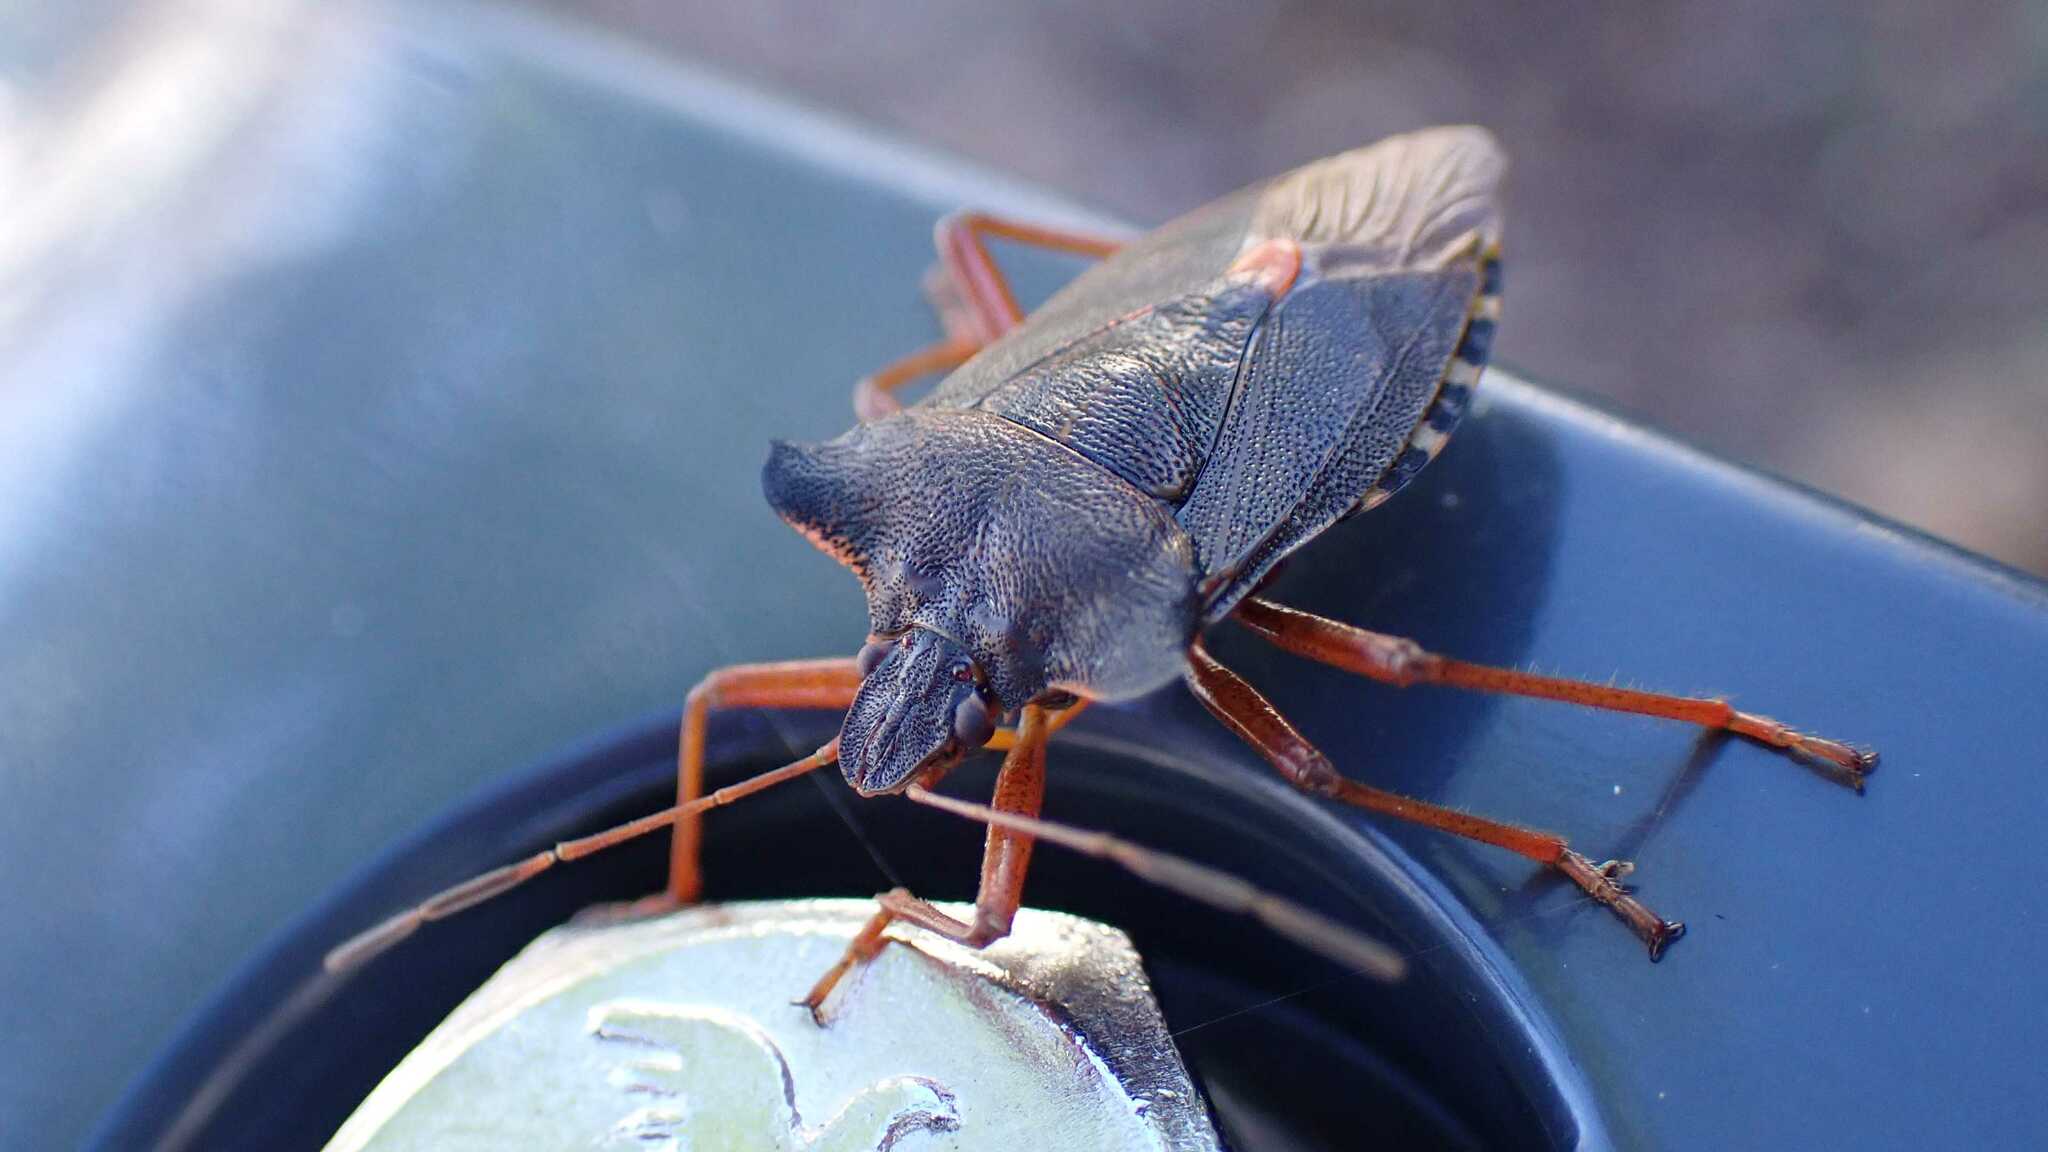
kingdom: Animalia
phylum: Arthropoda
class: Insecta
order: Hemiptera
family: Pentatomidae
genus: Pentatoma
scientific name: Pentatoma rufipes
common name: Forest bug
